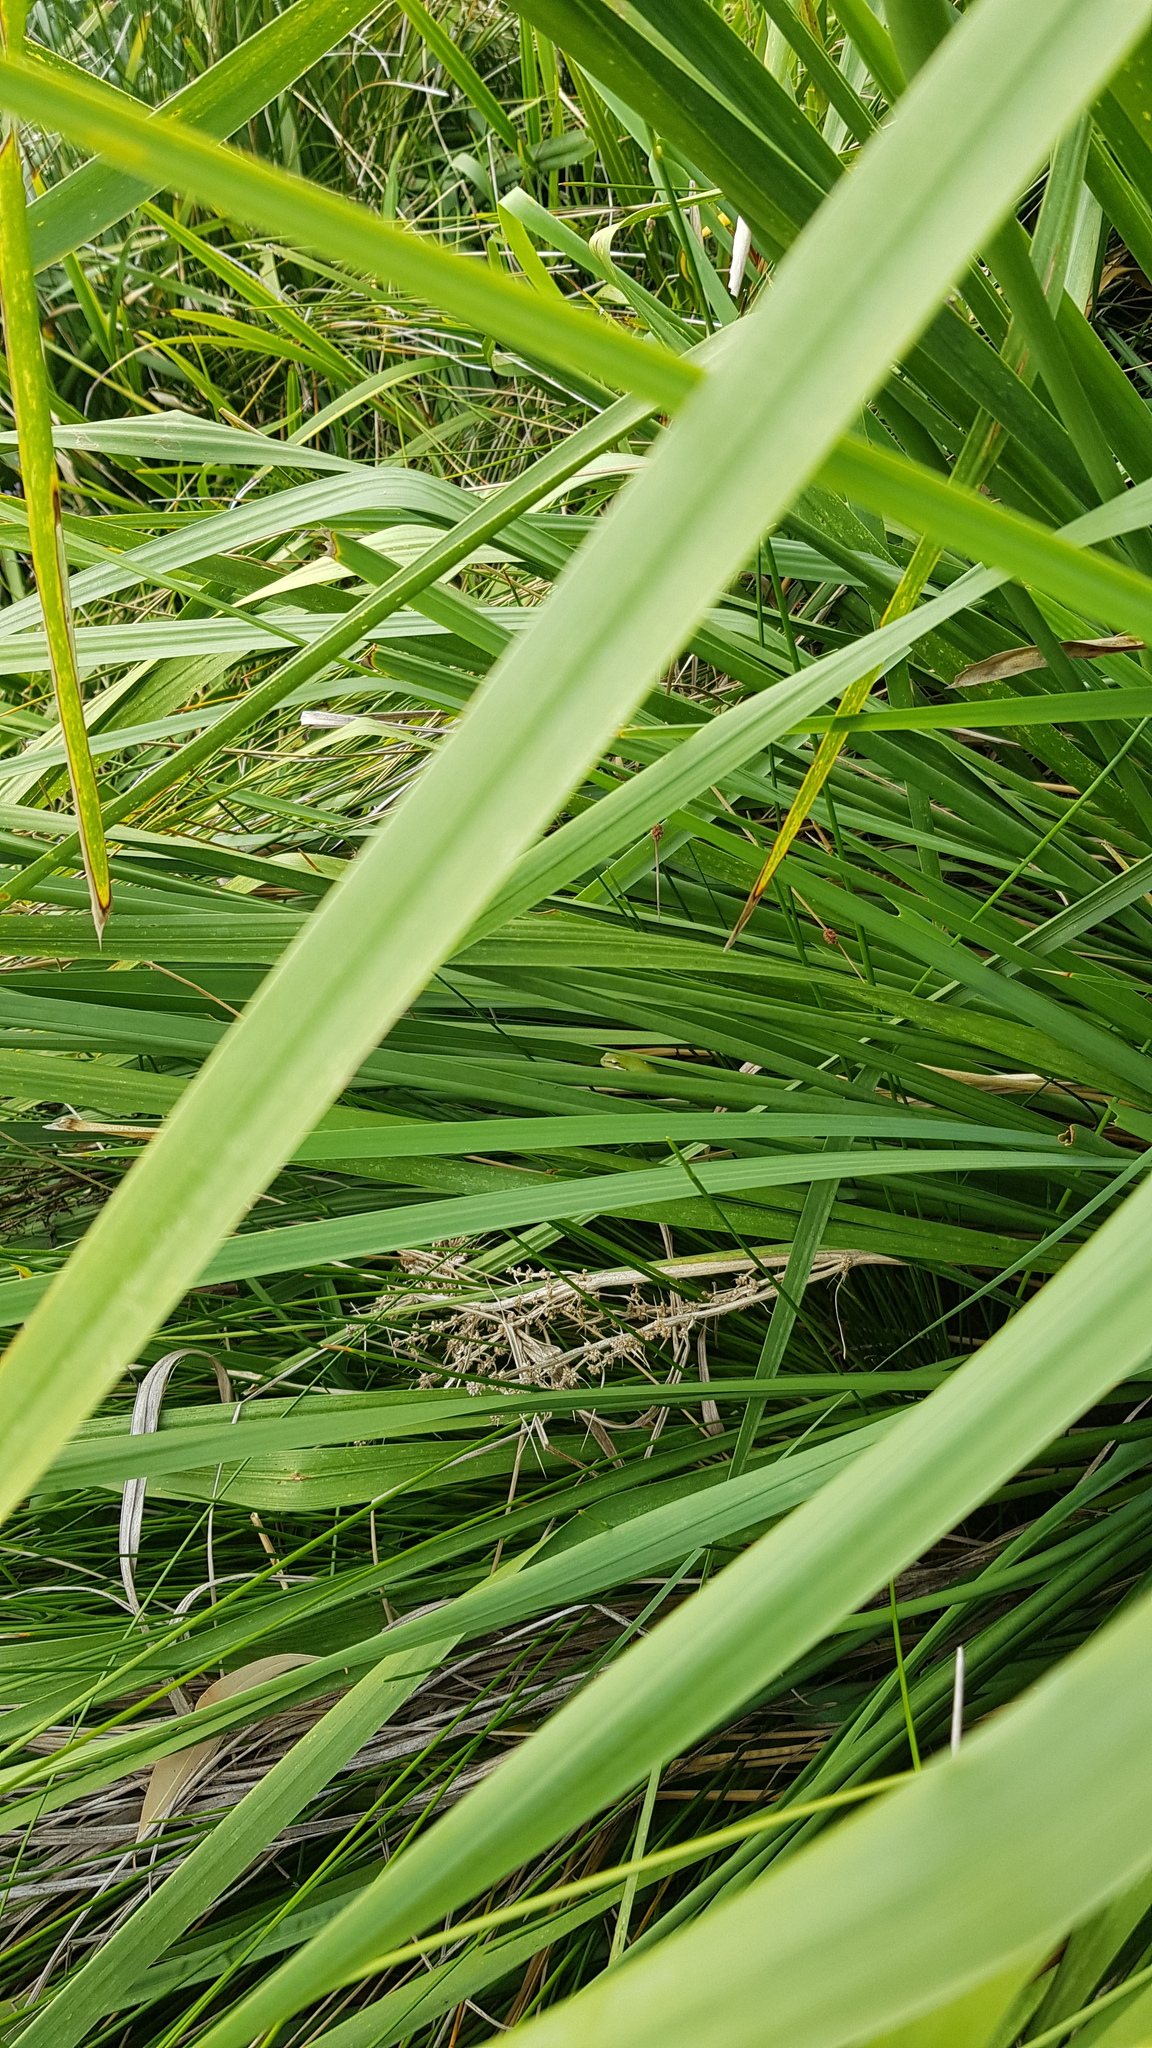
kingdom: Animalia
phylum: Chordata
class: Amphibia
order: Anura
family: Pelodryadidae
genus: Litoria
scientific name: Litoria fallax
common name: Eastern dwarf treefrog
